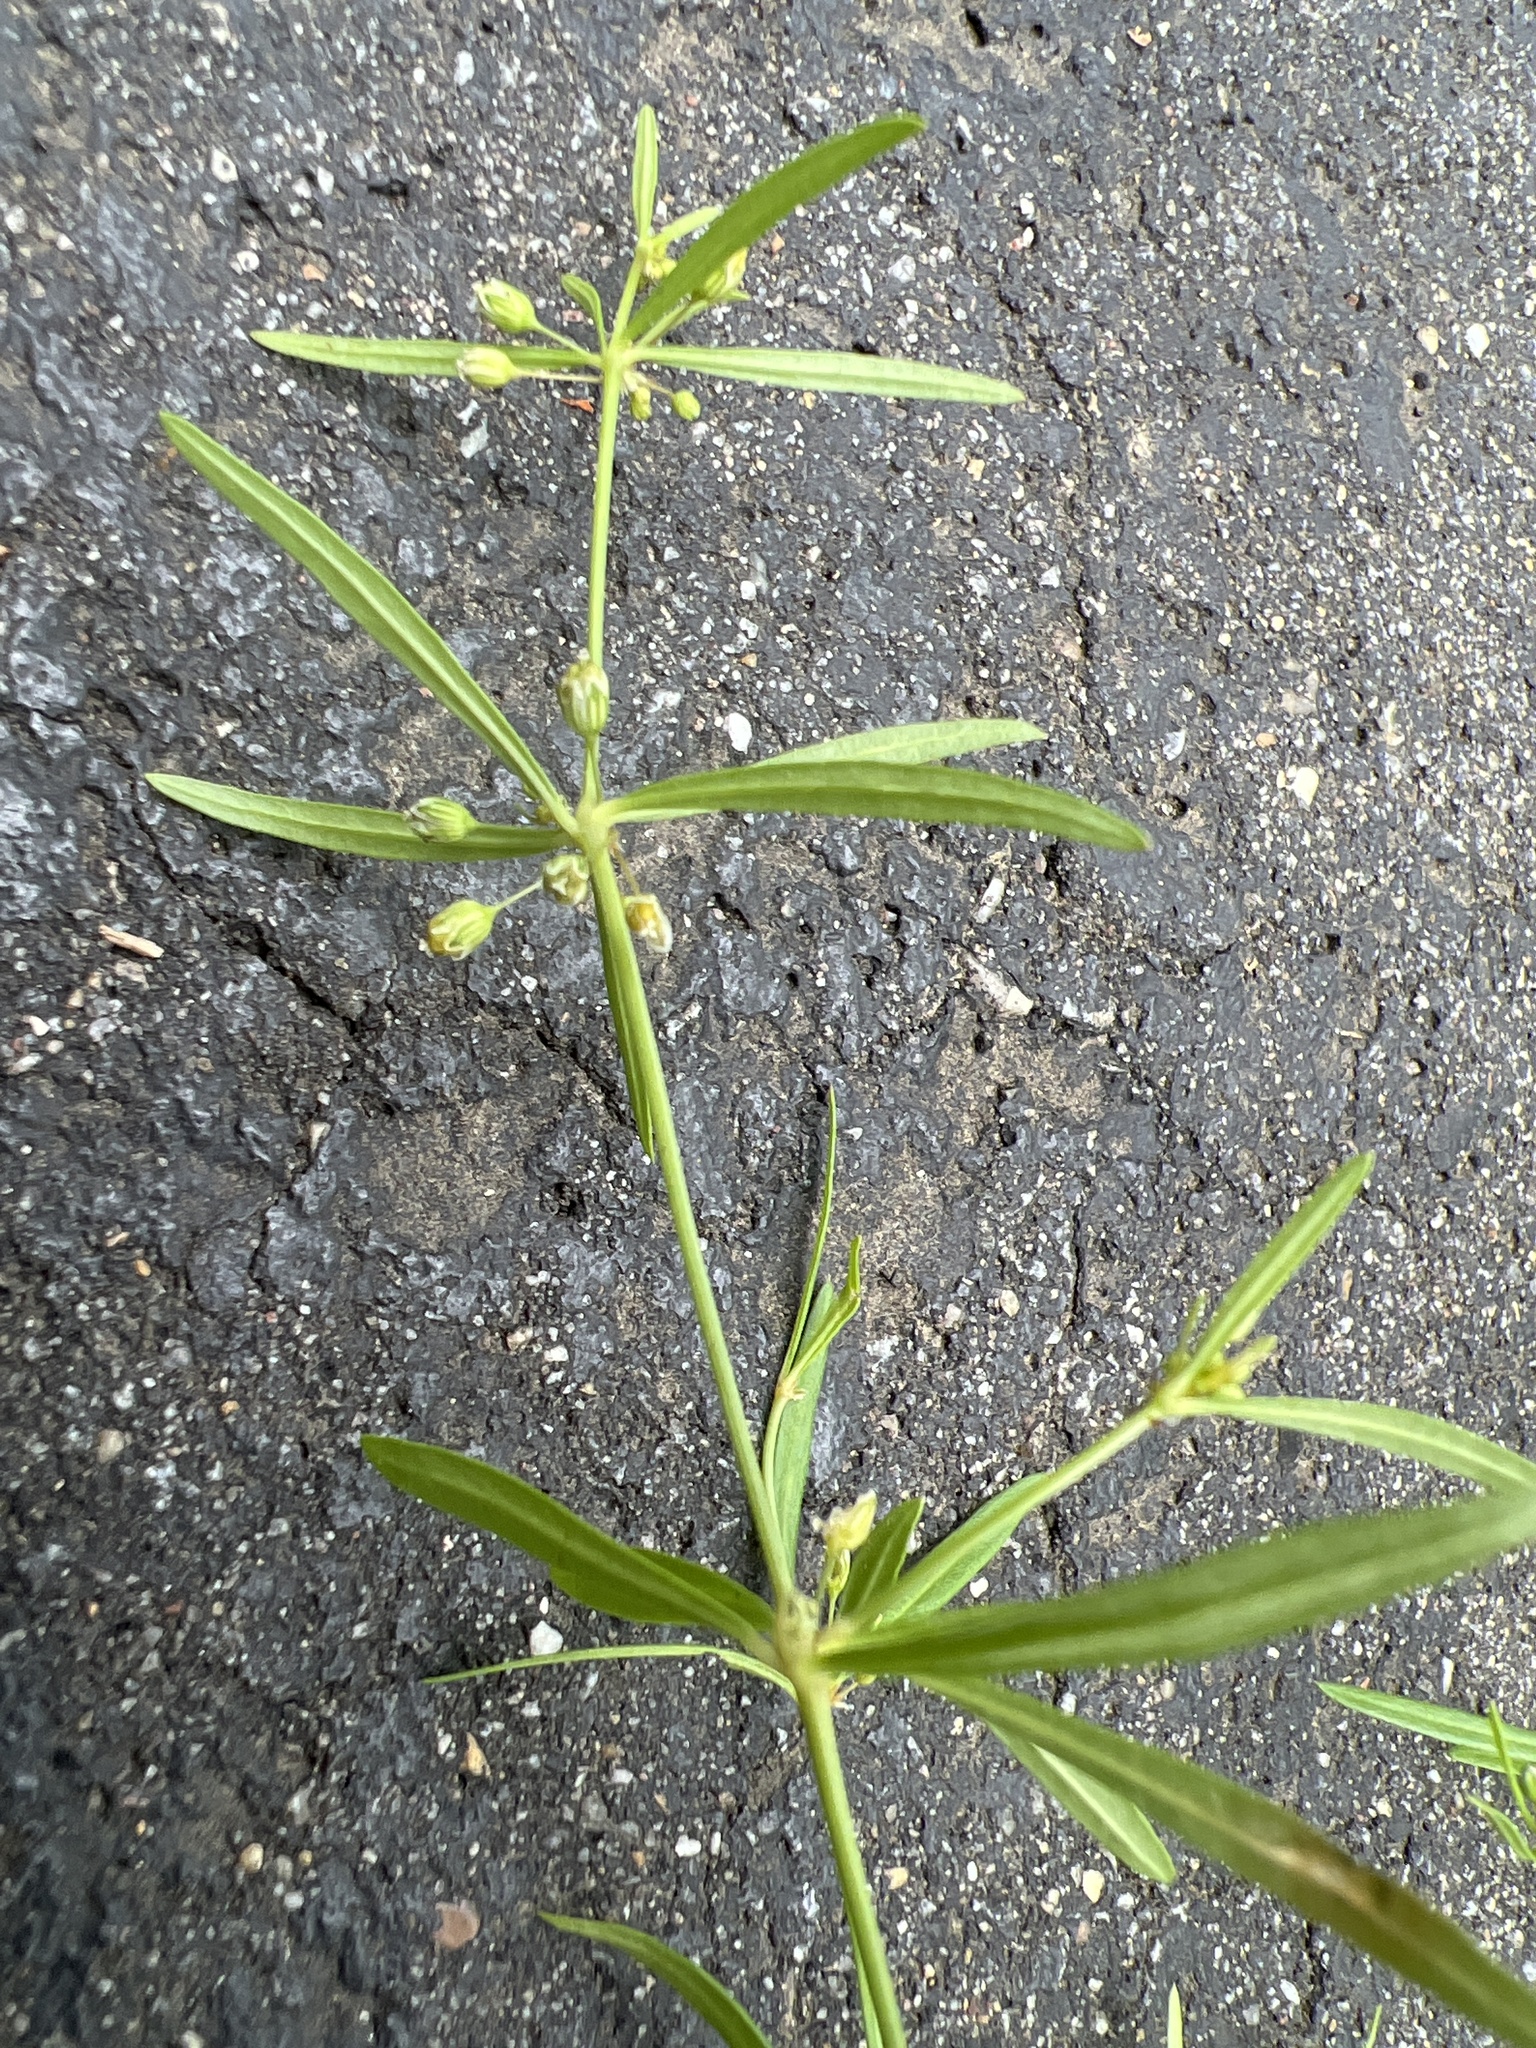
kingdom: Plantae
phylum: Tracheophyta
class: Magnoliopsida
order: Caryophyllales
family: Molluginaceae
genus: Mollugo
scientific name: Mollugo verticillata
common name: Green carpetweed
